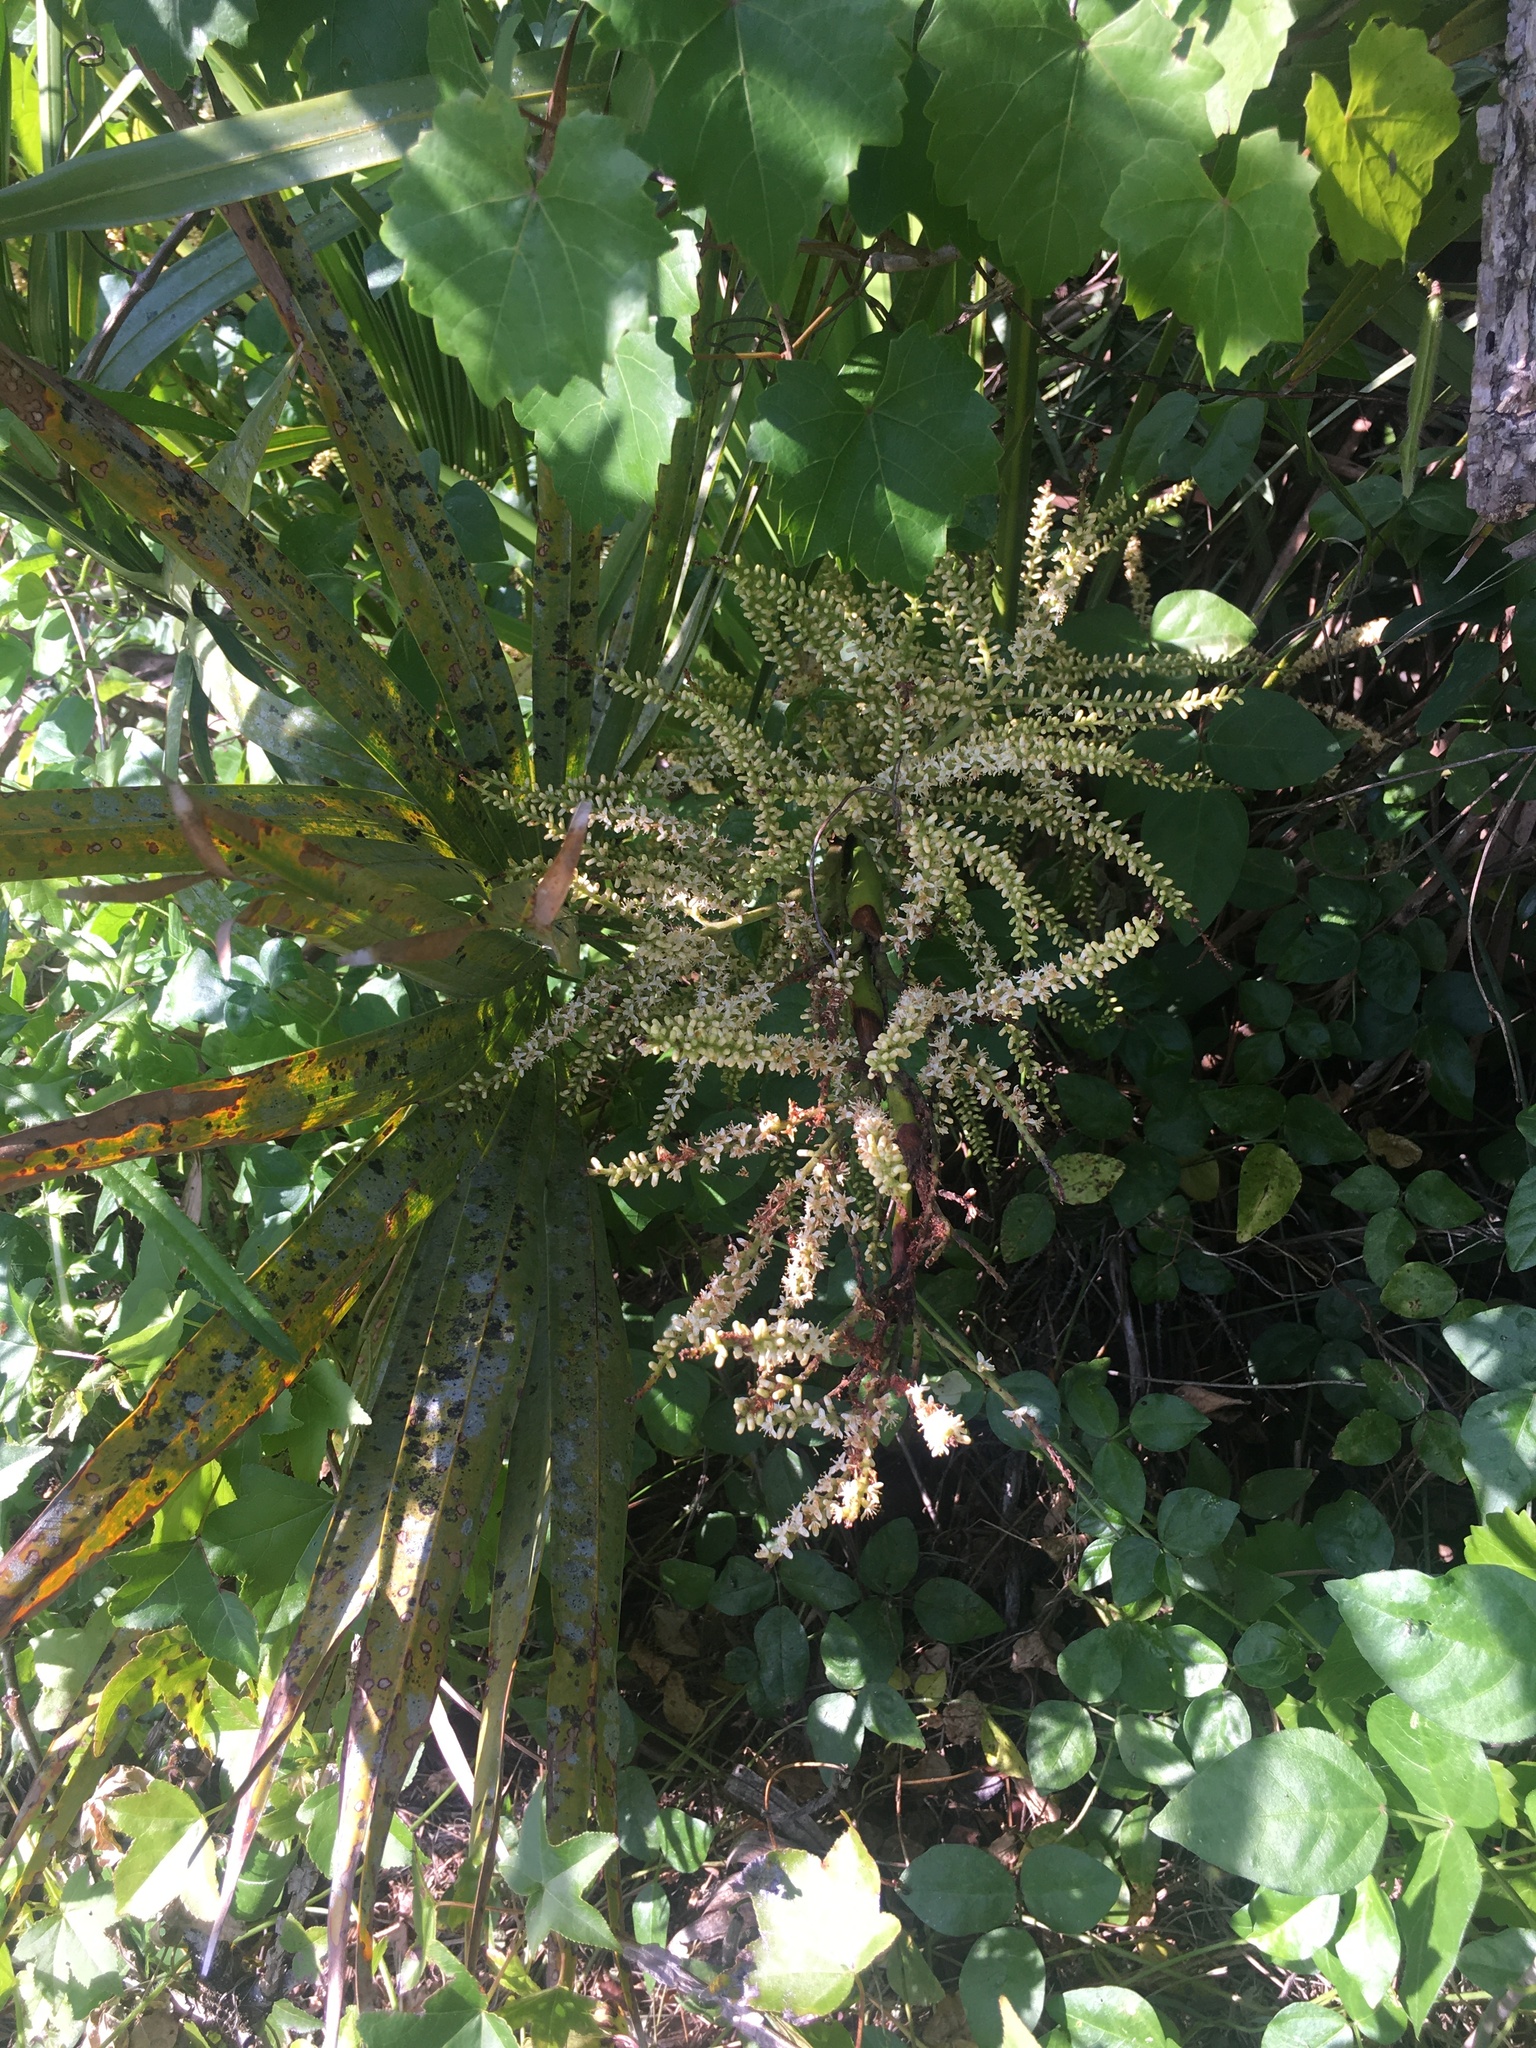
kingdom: Plantae
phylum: Tracheophyta
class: Liliopsida
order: Arecales
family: Arecaceae
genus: Serenoa
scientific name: Serenoa repens
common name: Saw-palmetto
